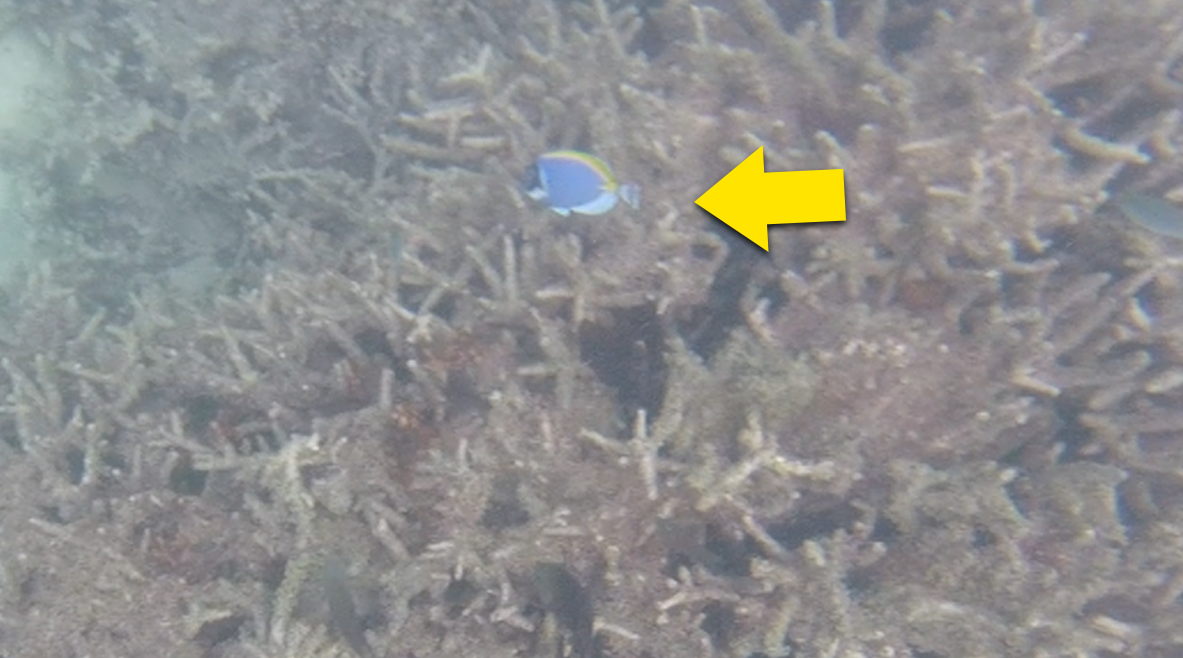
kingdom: Animalia
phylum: Chordata
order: Perciformes
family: Acanthuridae
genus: Acanthurus
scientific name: Acanthurus leucosternon
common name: Blue surgeonfish
